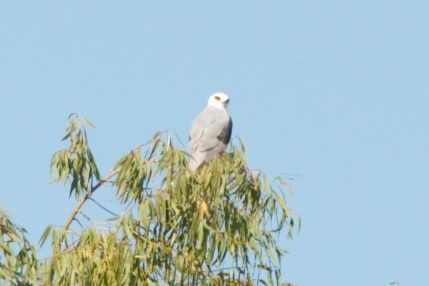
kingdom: Animalia
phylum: Chordata
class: Aves
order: Accipitriformes
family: Accipitridae
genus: Elanus
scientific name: Elanus leucurus
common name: White-tailed kite
